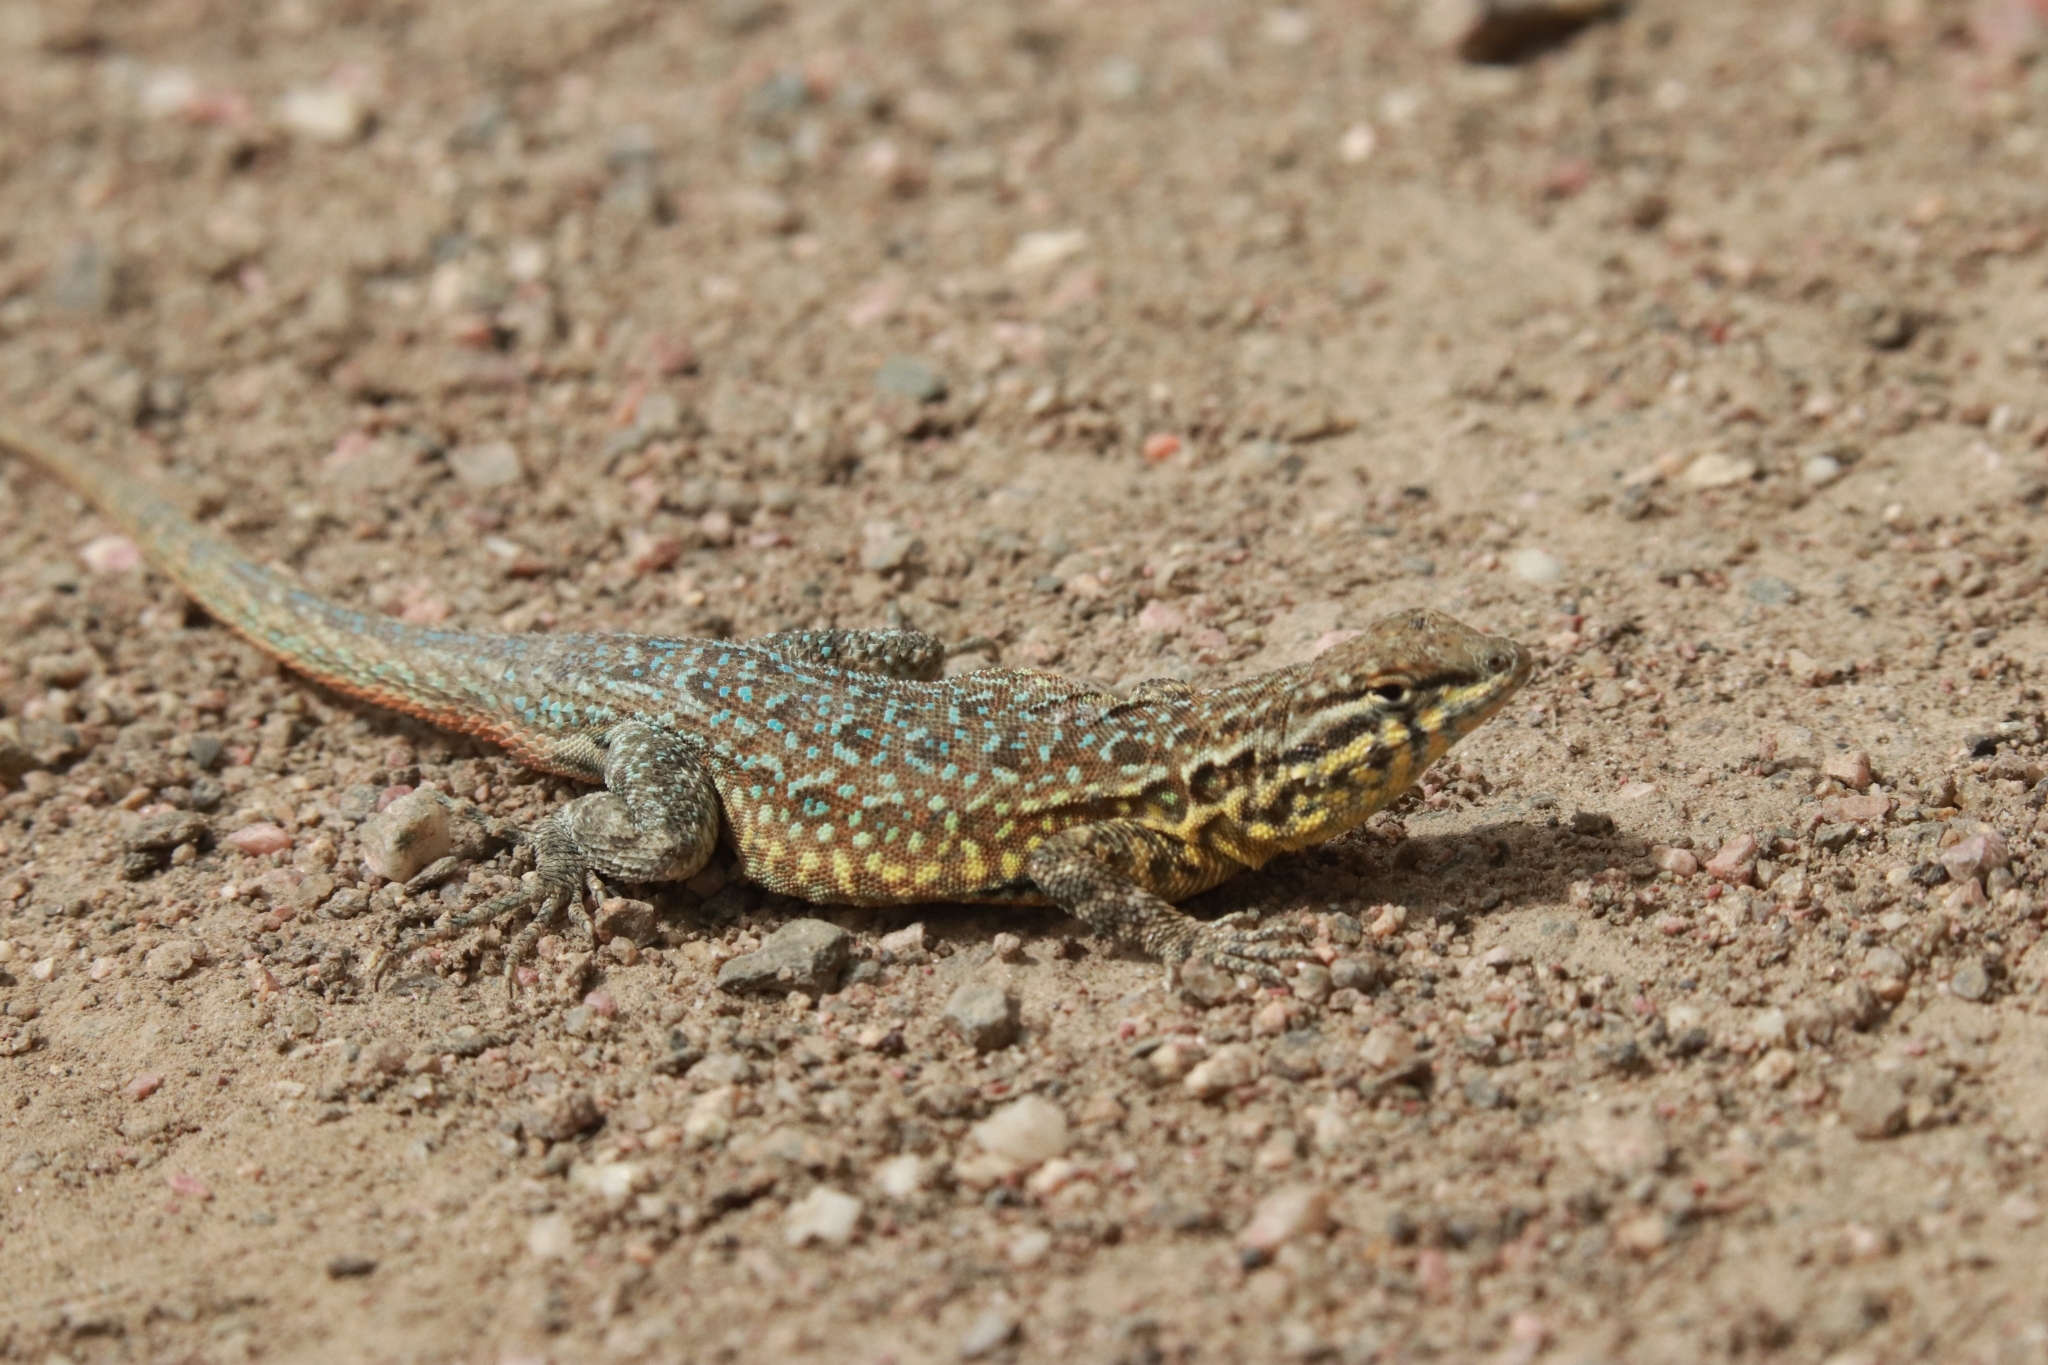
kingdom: Animalia
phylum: Chordata
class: Squamata
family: Phrynosomatidae
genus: Uta
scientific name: Uta stansburiana
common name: Side-blotched lizard
